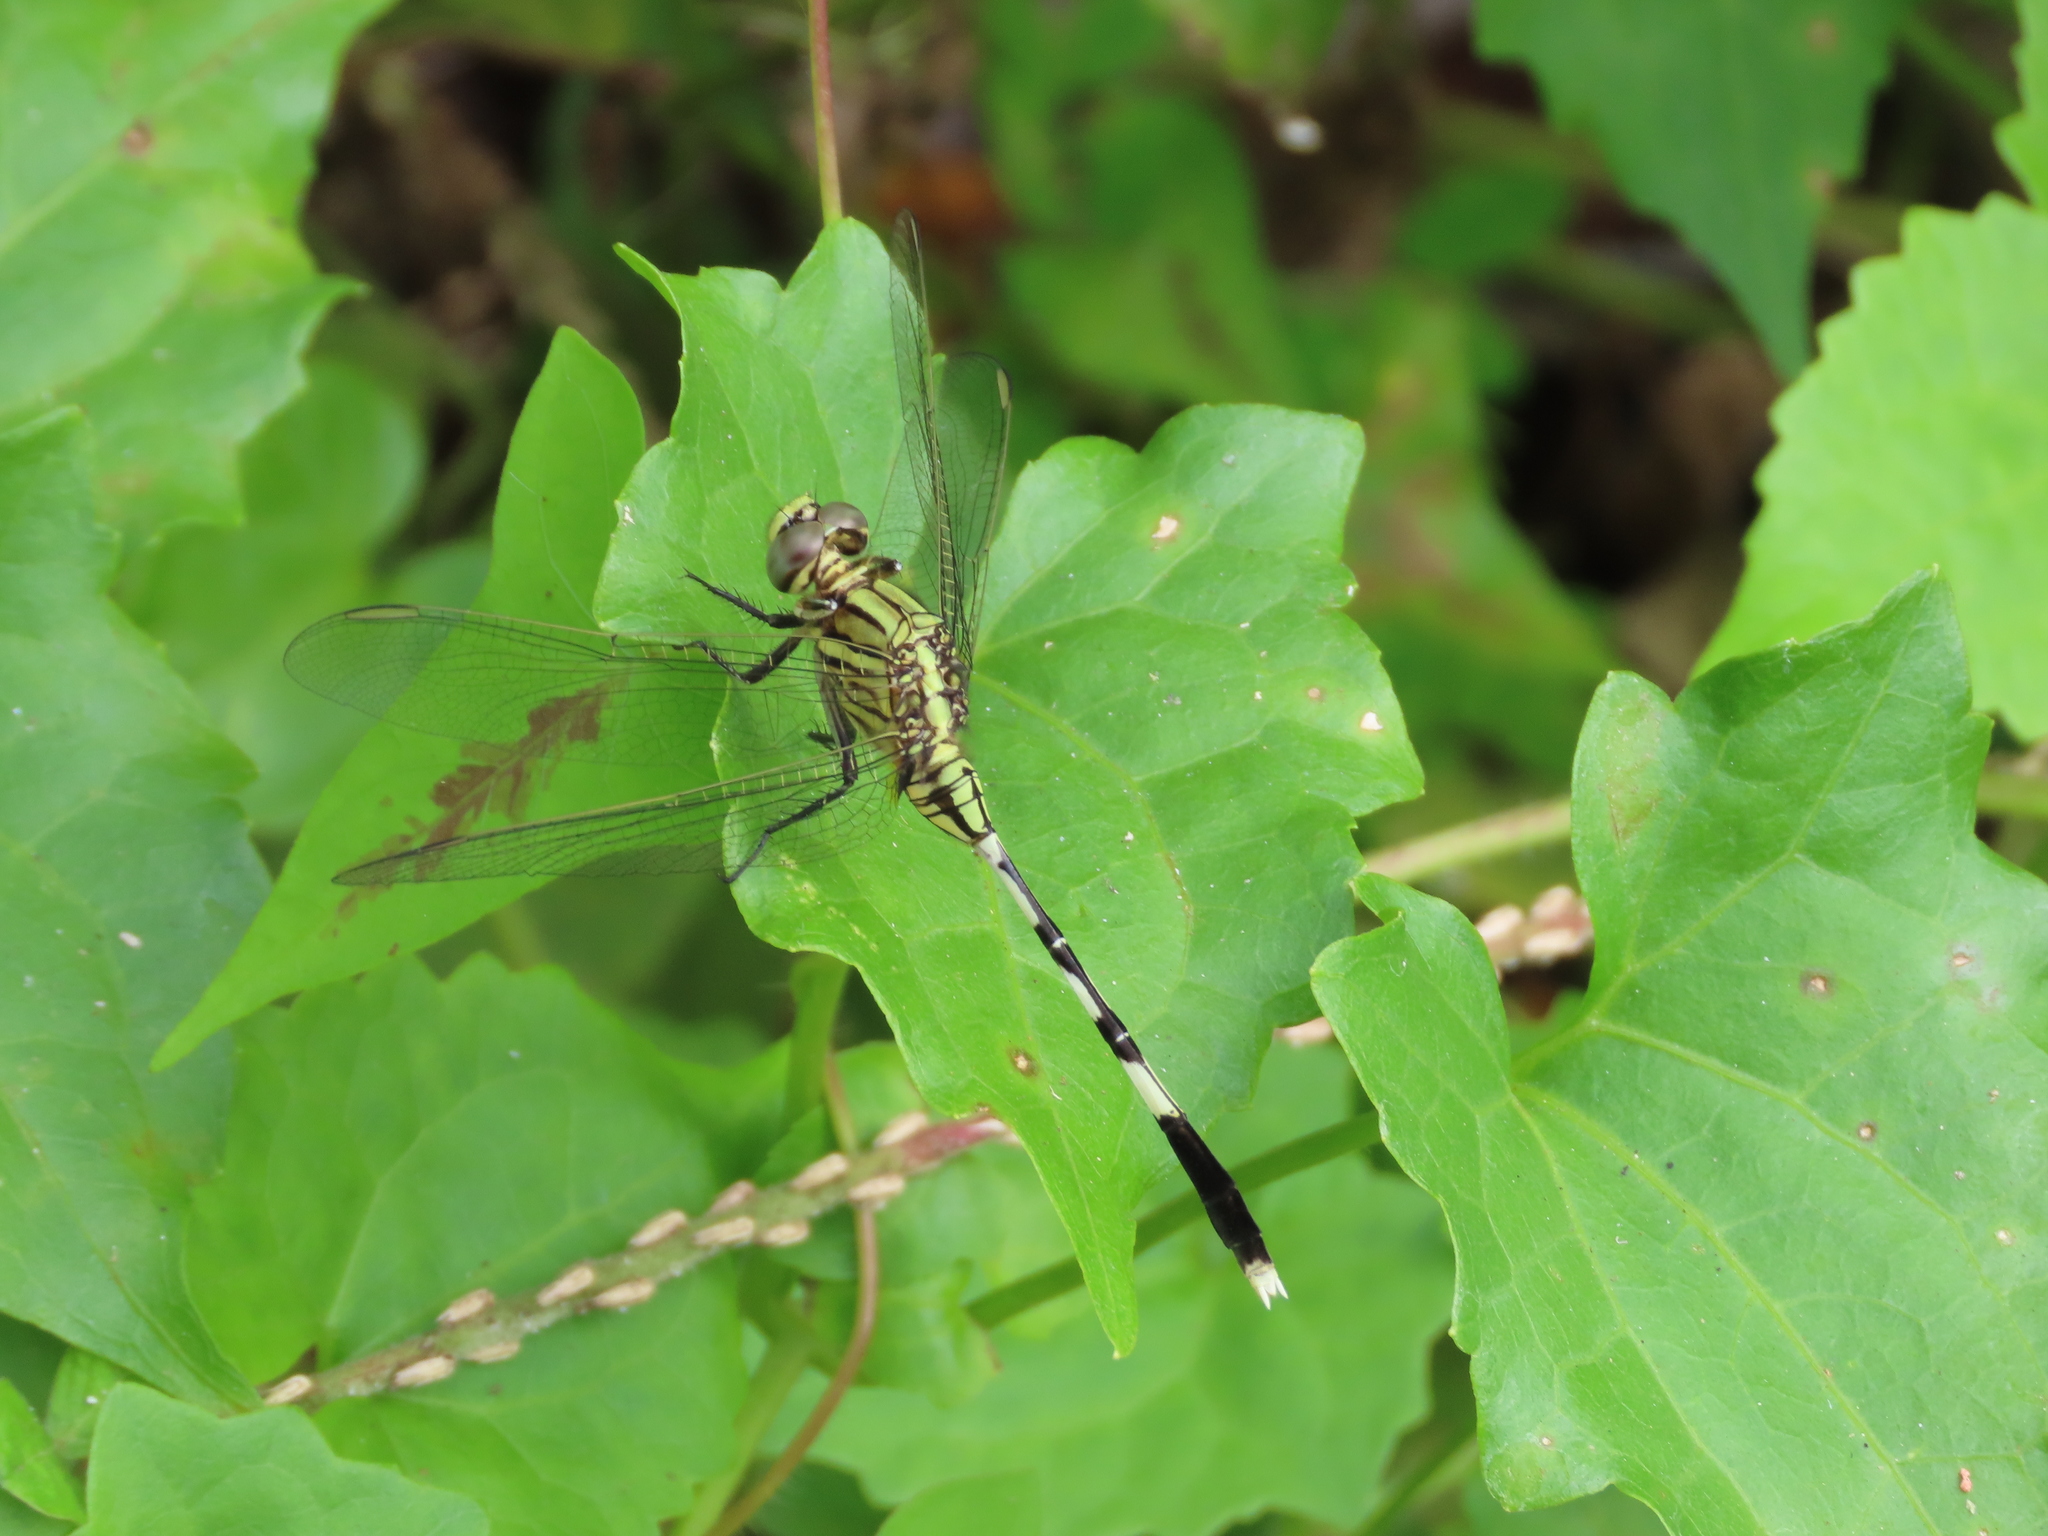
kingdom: Animalia
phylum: Arthropoda
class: Insecta
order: Odonata
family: Libellulidae
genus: Orthetrum
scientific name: Orthetrum sabina
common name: Slender skimmer
